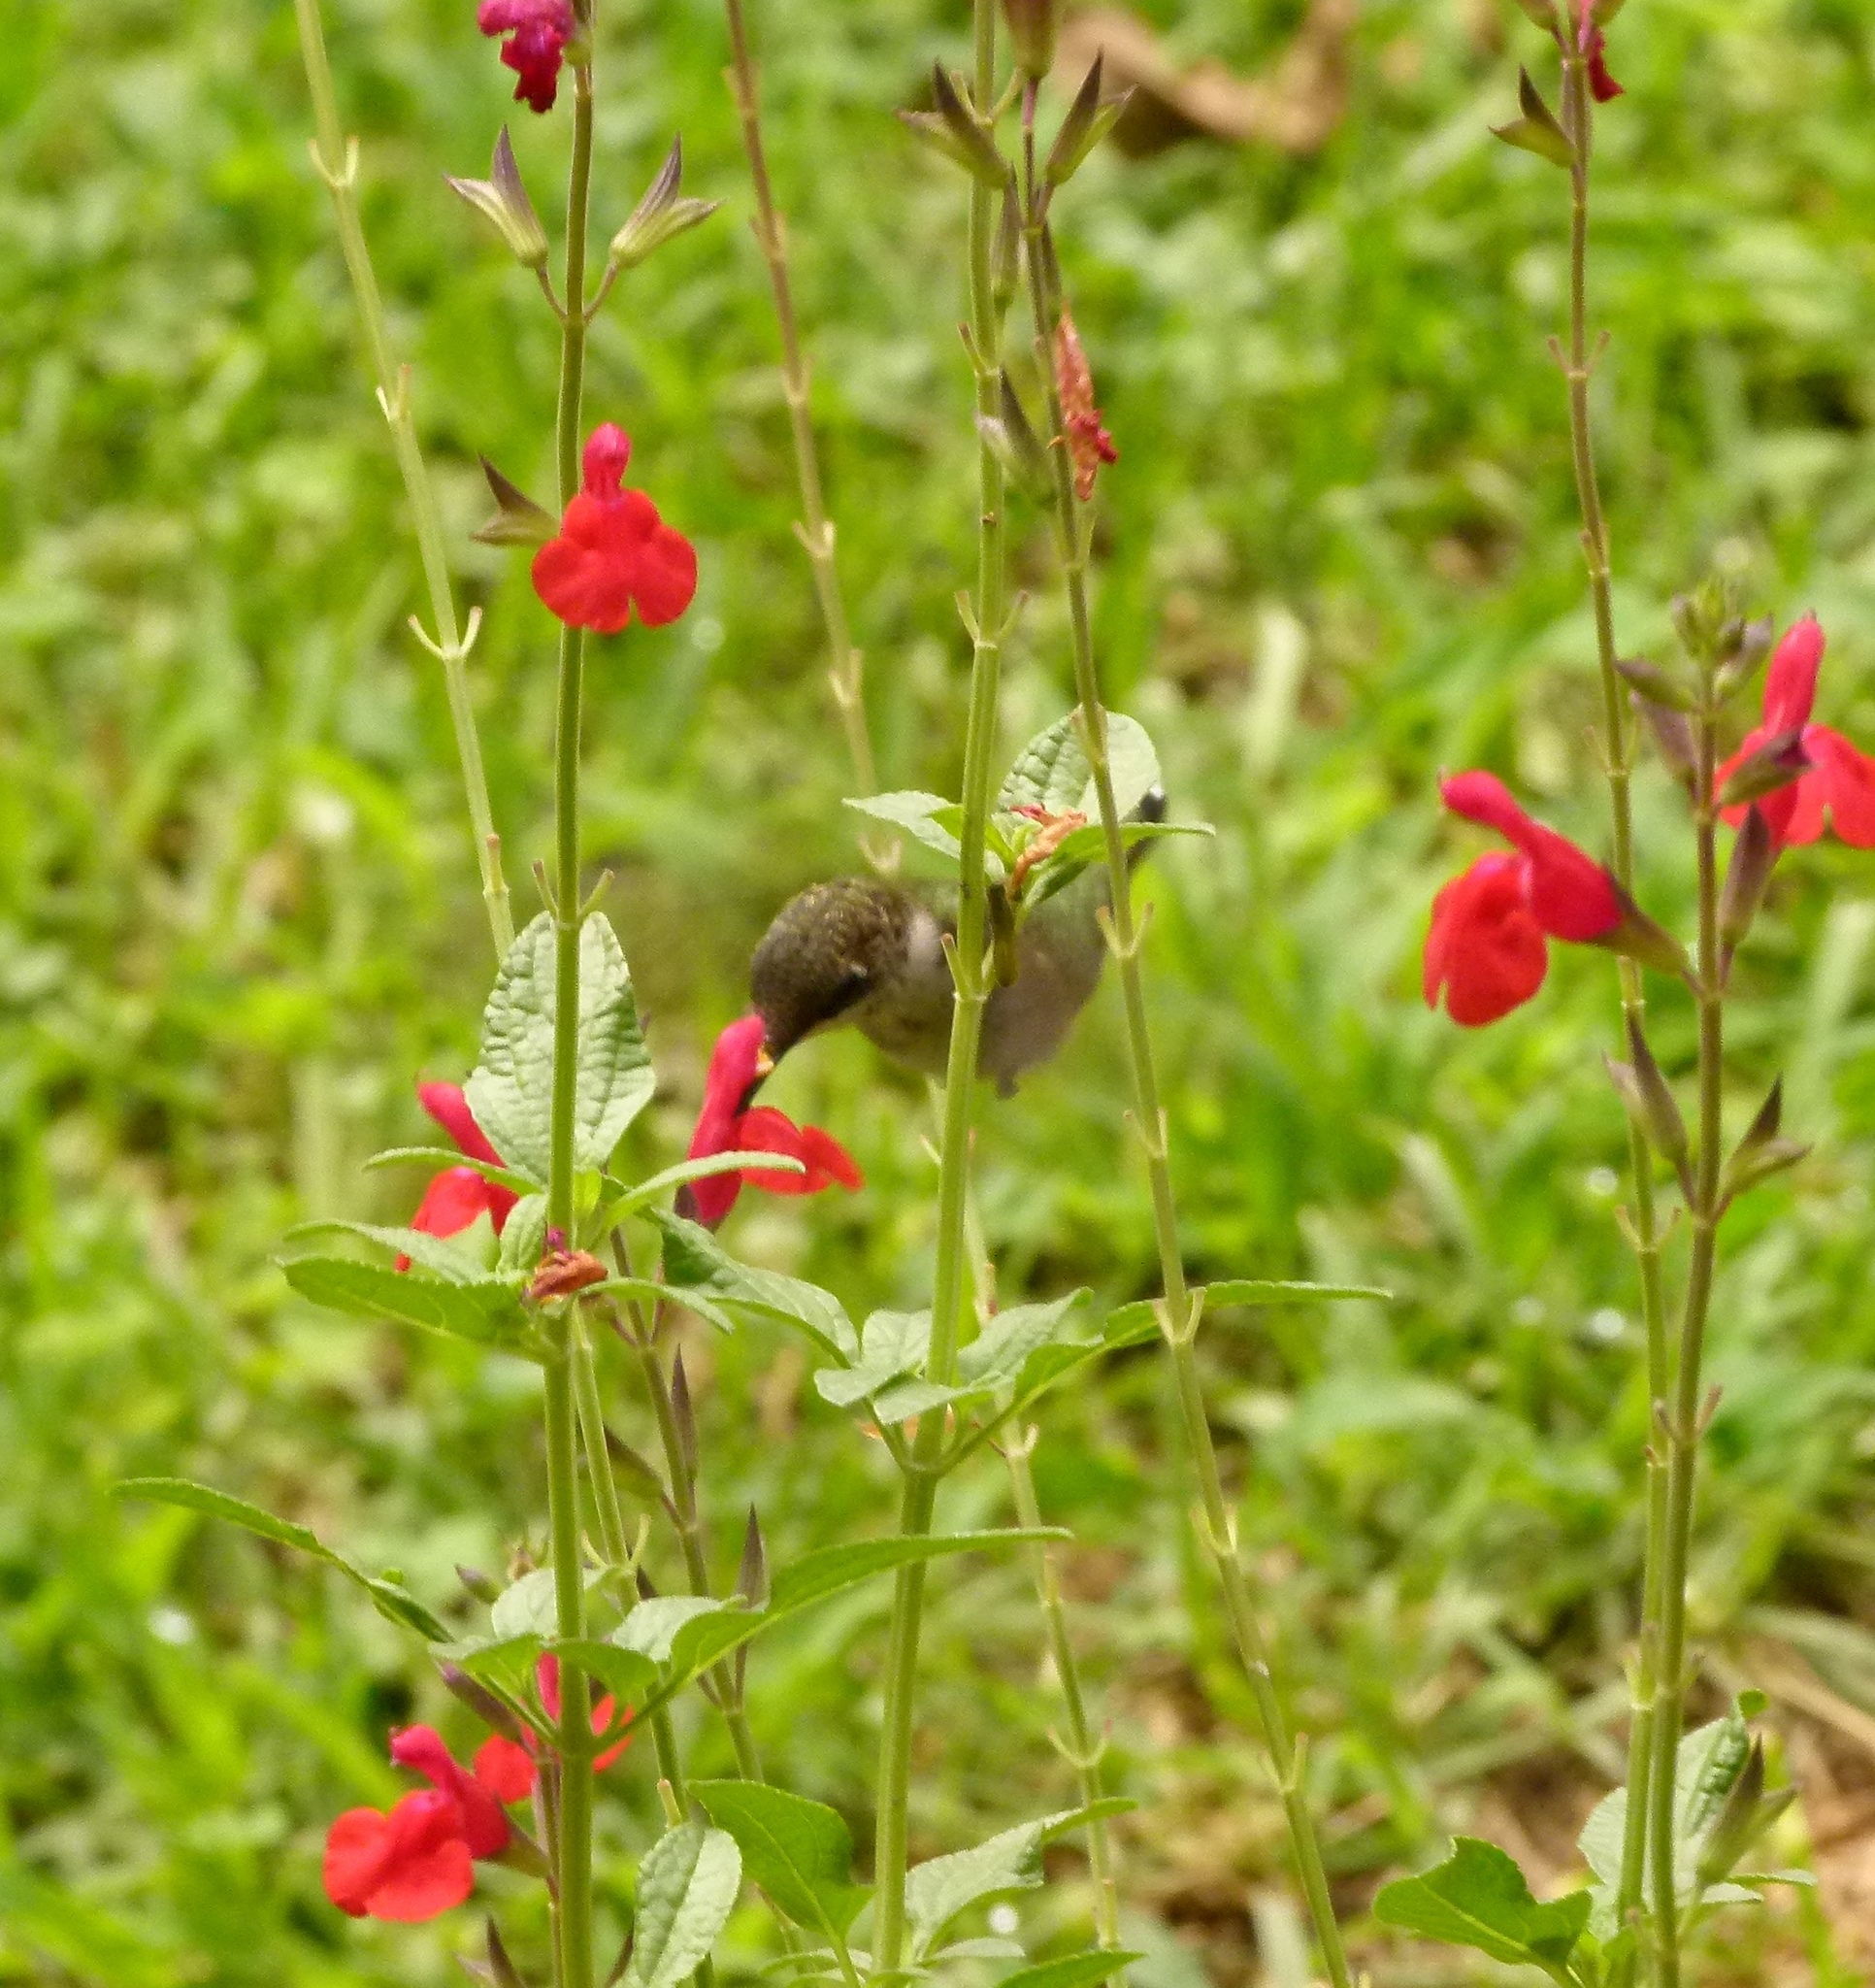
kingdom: Animalia
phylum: Chordata
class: Aves
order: Apodiformes
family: Trochilidae
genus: Archilochus
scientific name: Archilochus colubris
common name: Ruby-throated hummingbird
